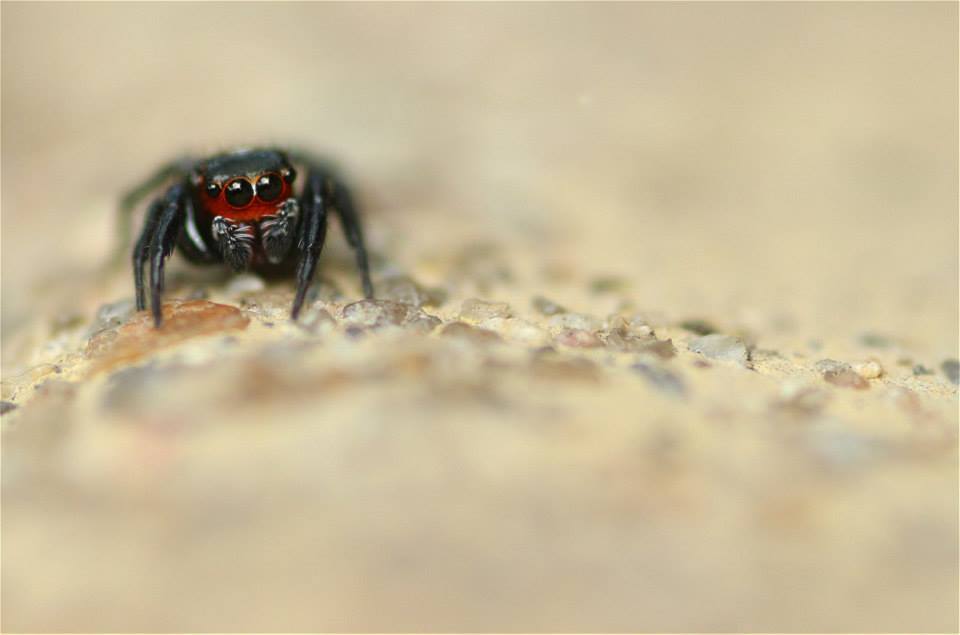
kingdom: Animalia
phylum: Arthropoda
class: Arachnida
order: Araneae
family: Salticidae
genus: Evarcha
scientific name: Evarcha ignea
